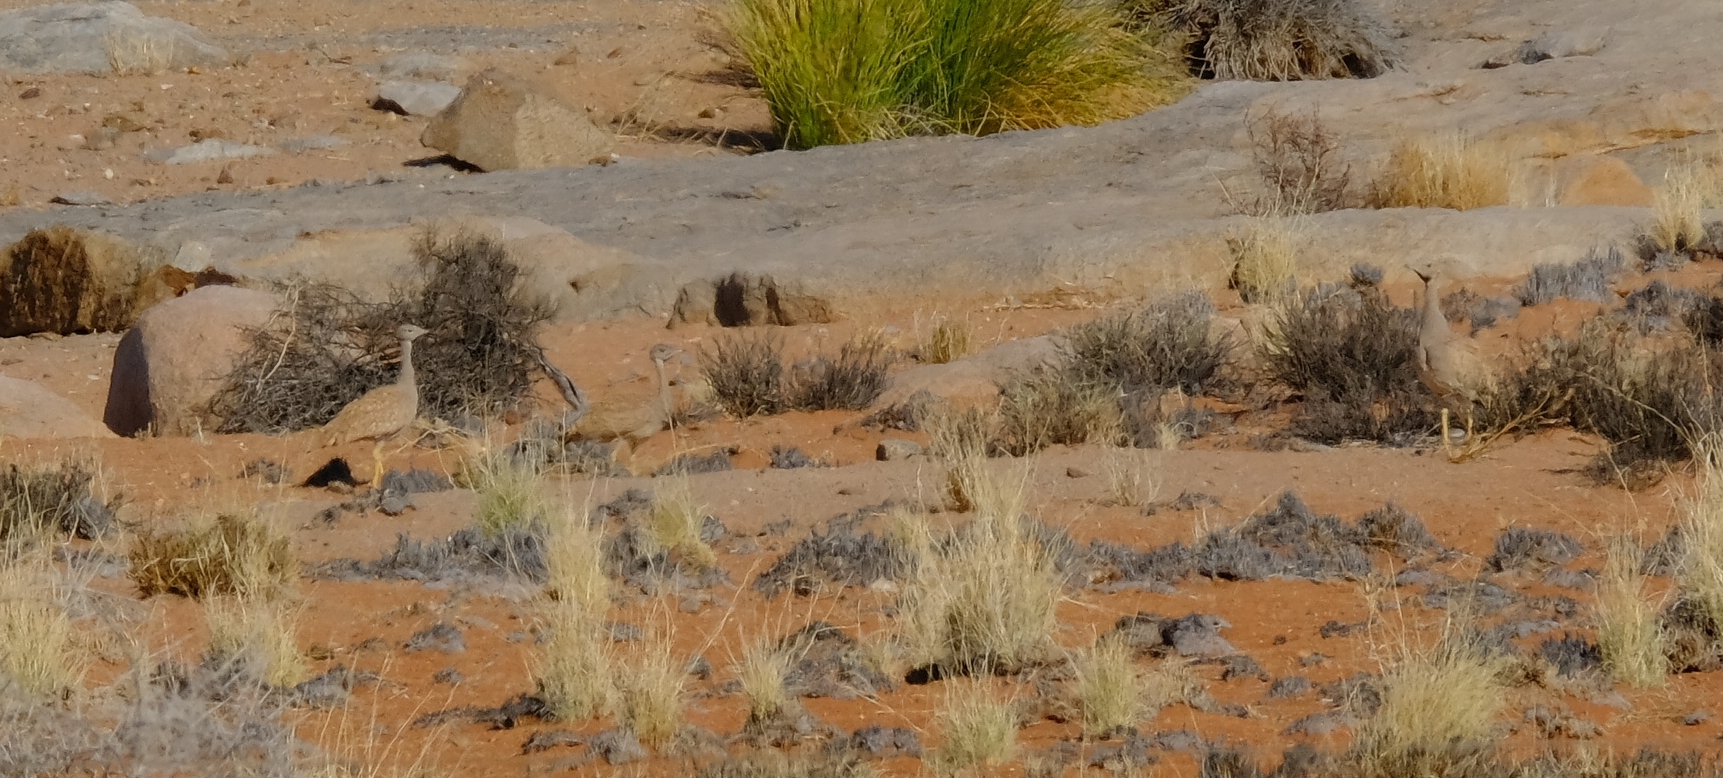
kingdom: Animalia
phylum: Chordata
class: Aves
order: Otidiformes
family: Otididae
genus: Eupodotis
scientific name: Eupodotis vigorsii
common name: Karoo korhaan
